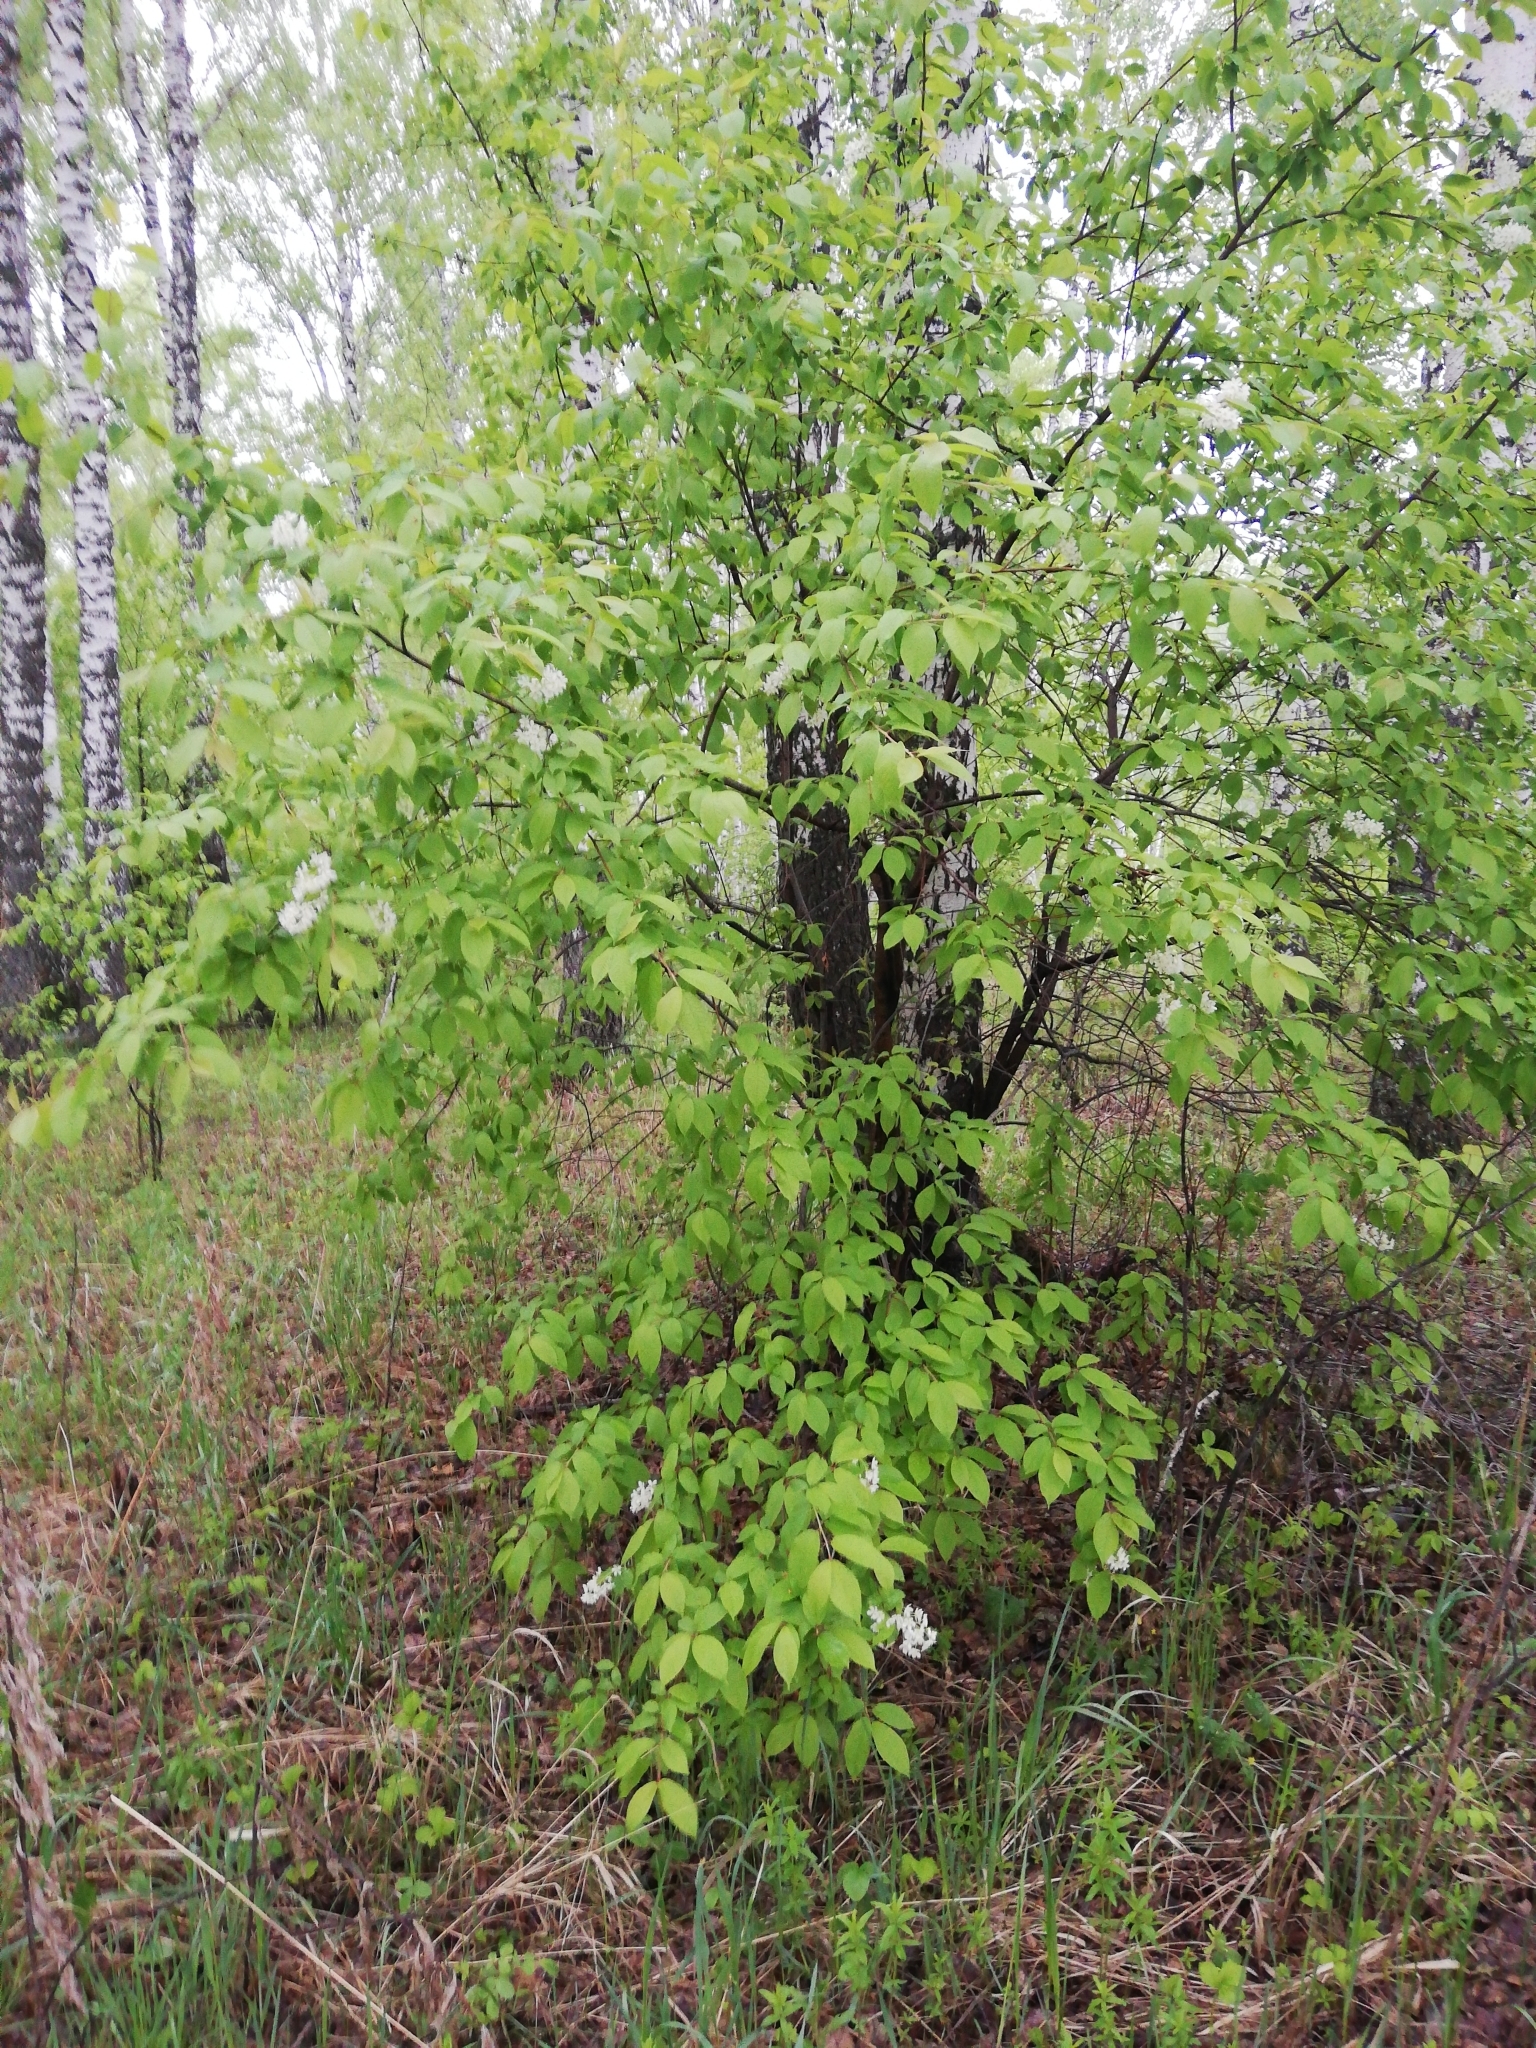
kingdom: Plantae
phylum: Tracheophyta
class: Magnoliopsida
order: Rosales
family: Rosaceae
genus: Prunus
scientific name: Prunus padus
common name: Bird cherry
